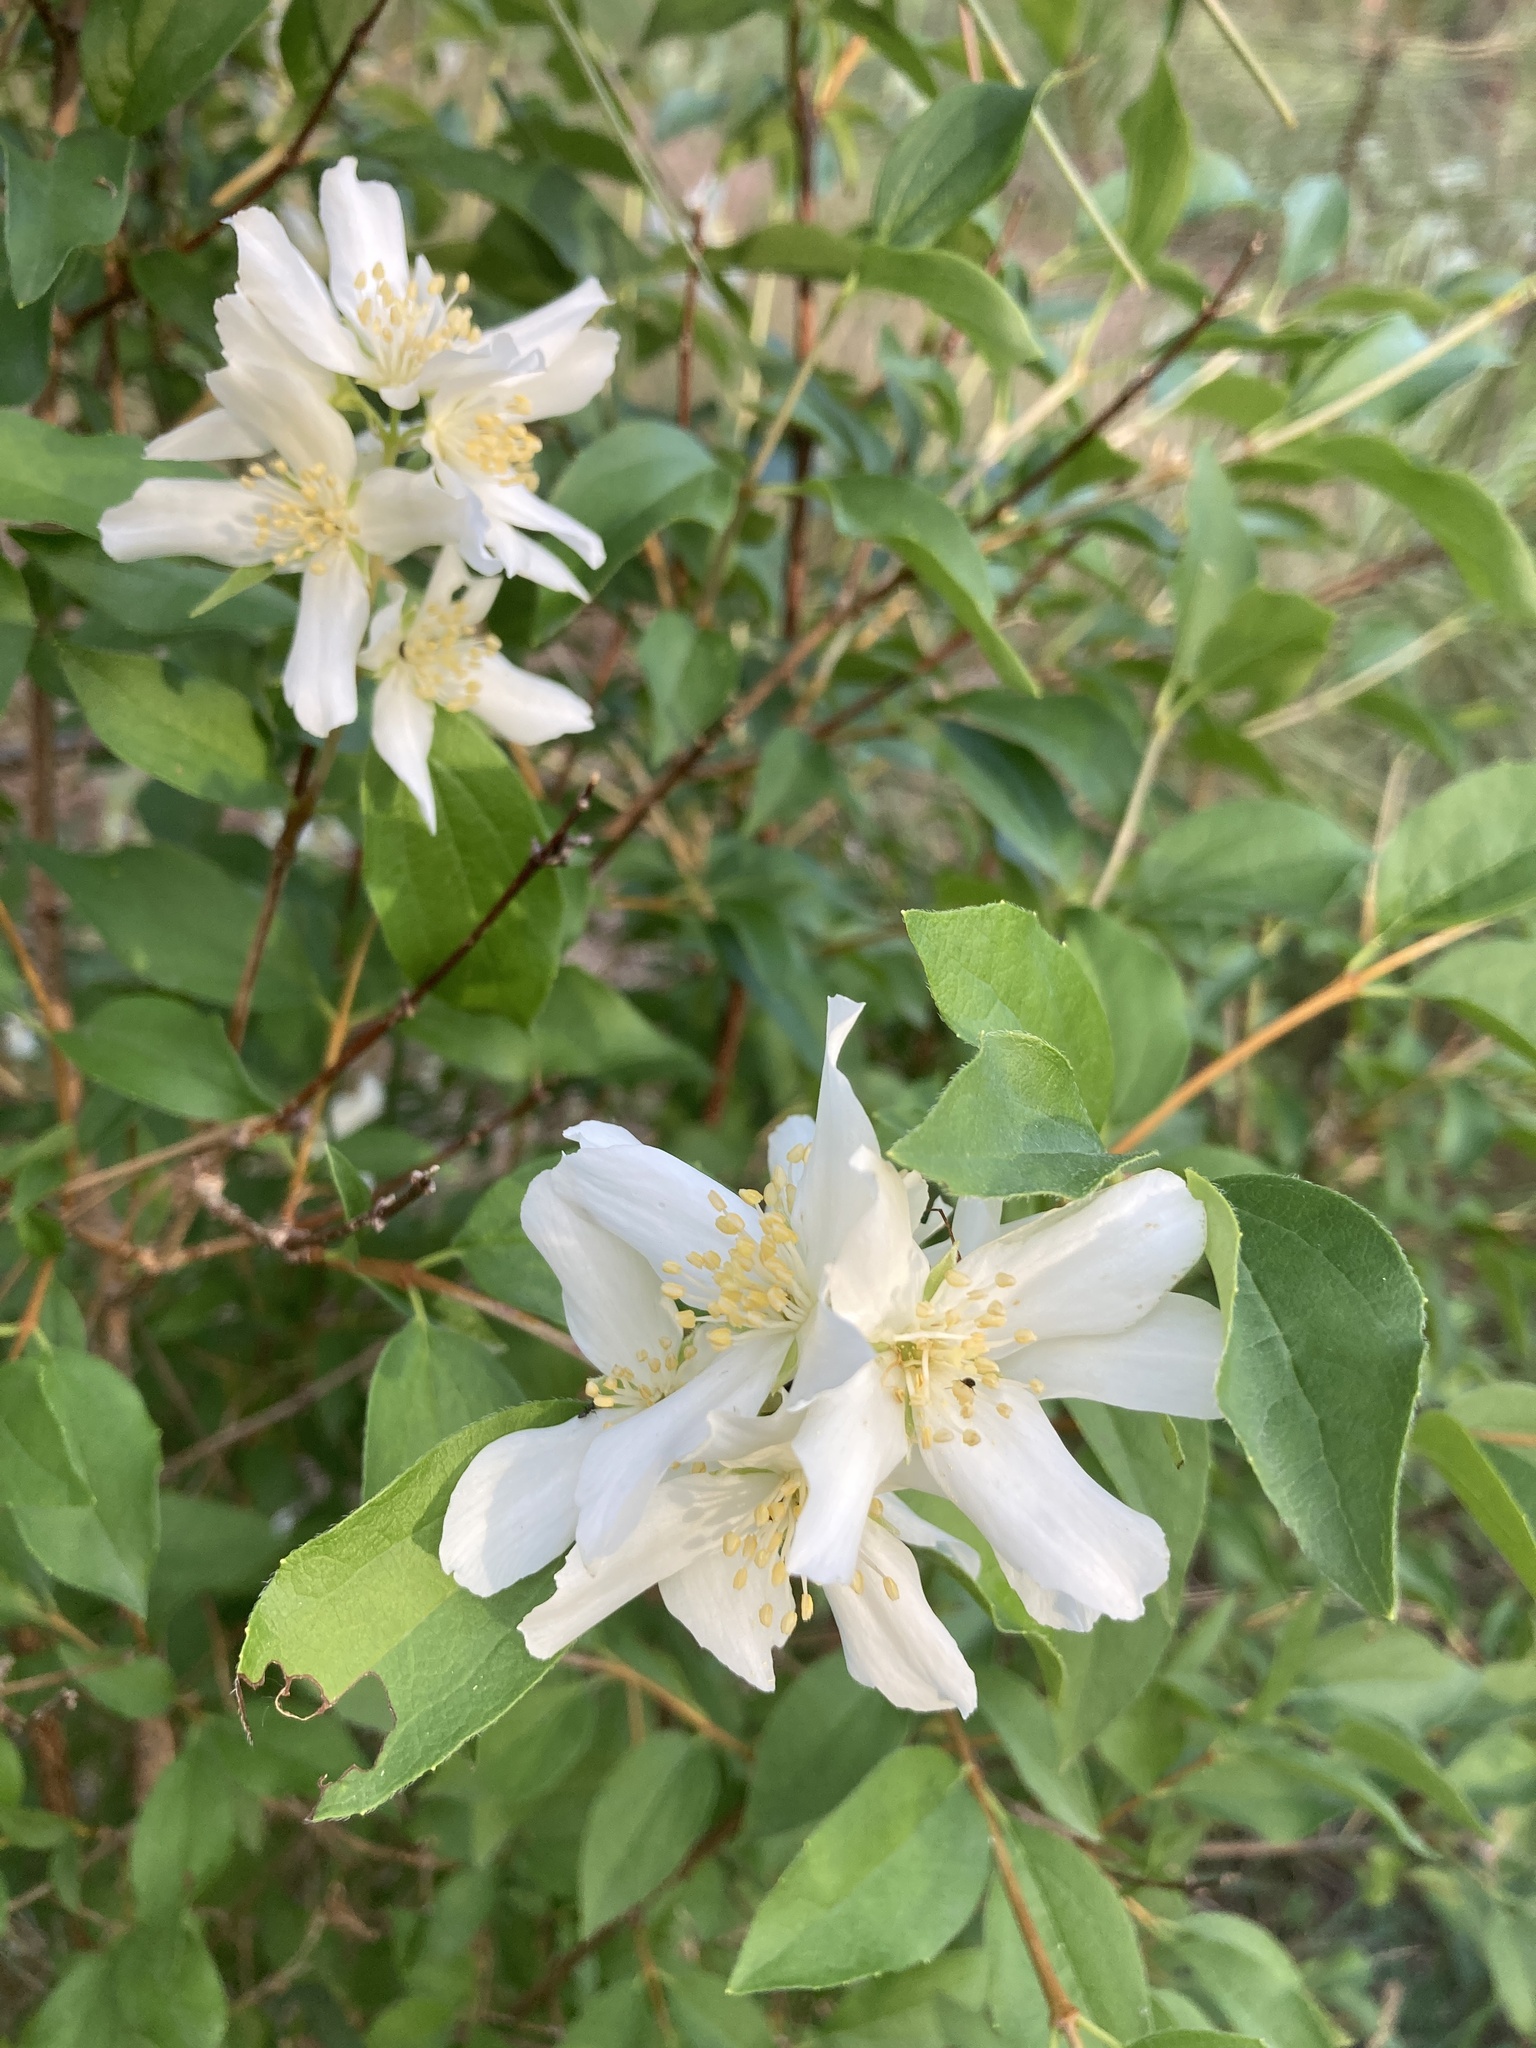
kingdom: Plantae
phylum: Tracheophyta
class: Magnoliopsida
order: Cornales
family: Hydrangeaceae
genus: Philadelphus
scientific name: Philadelphus lewisii
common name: Lewis's mock orange
